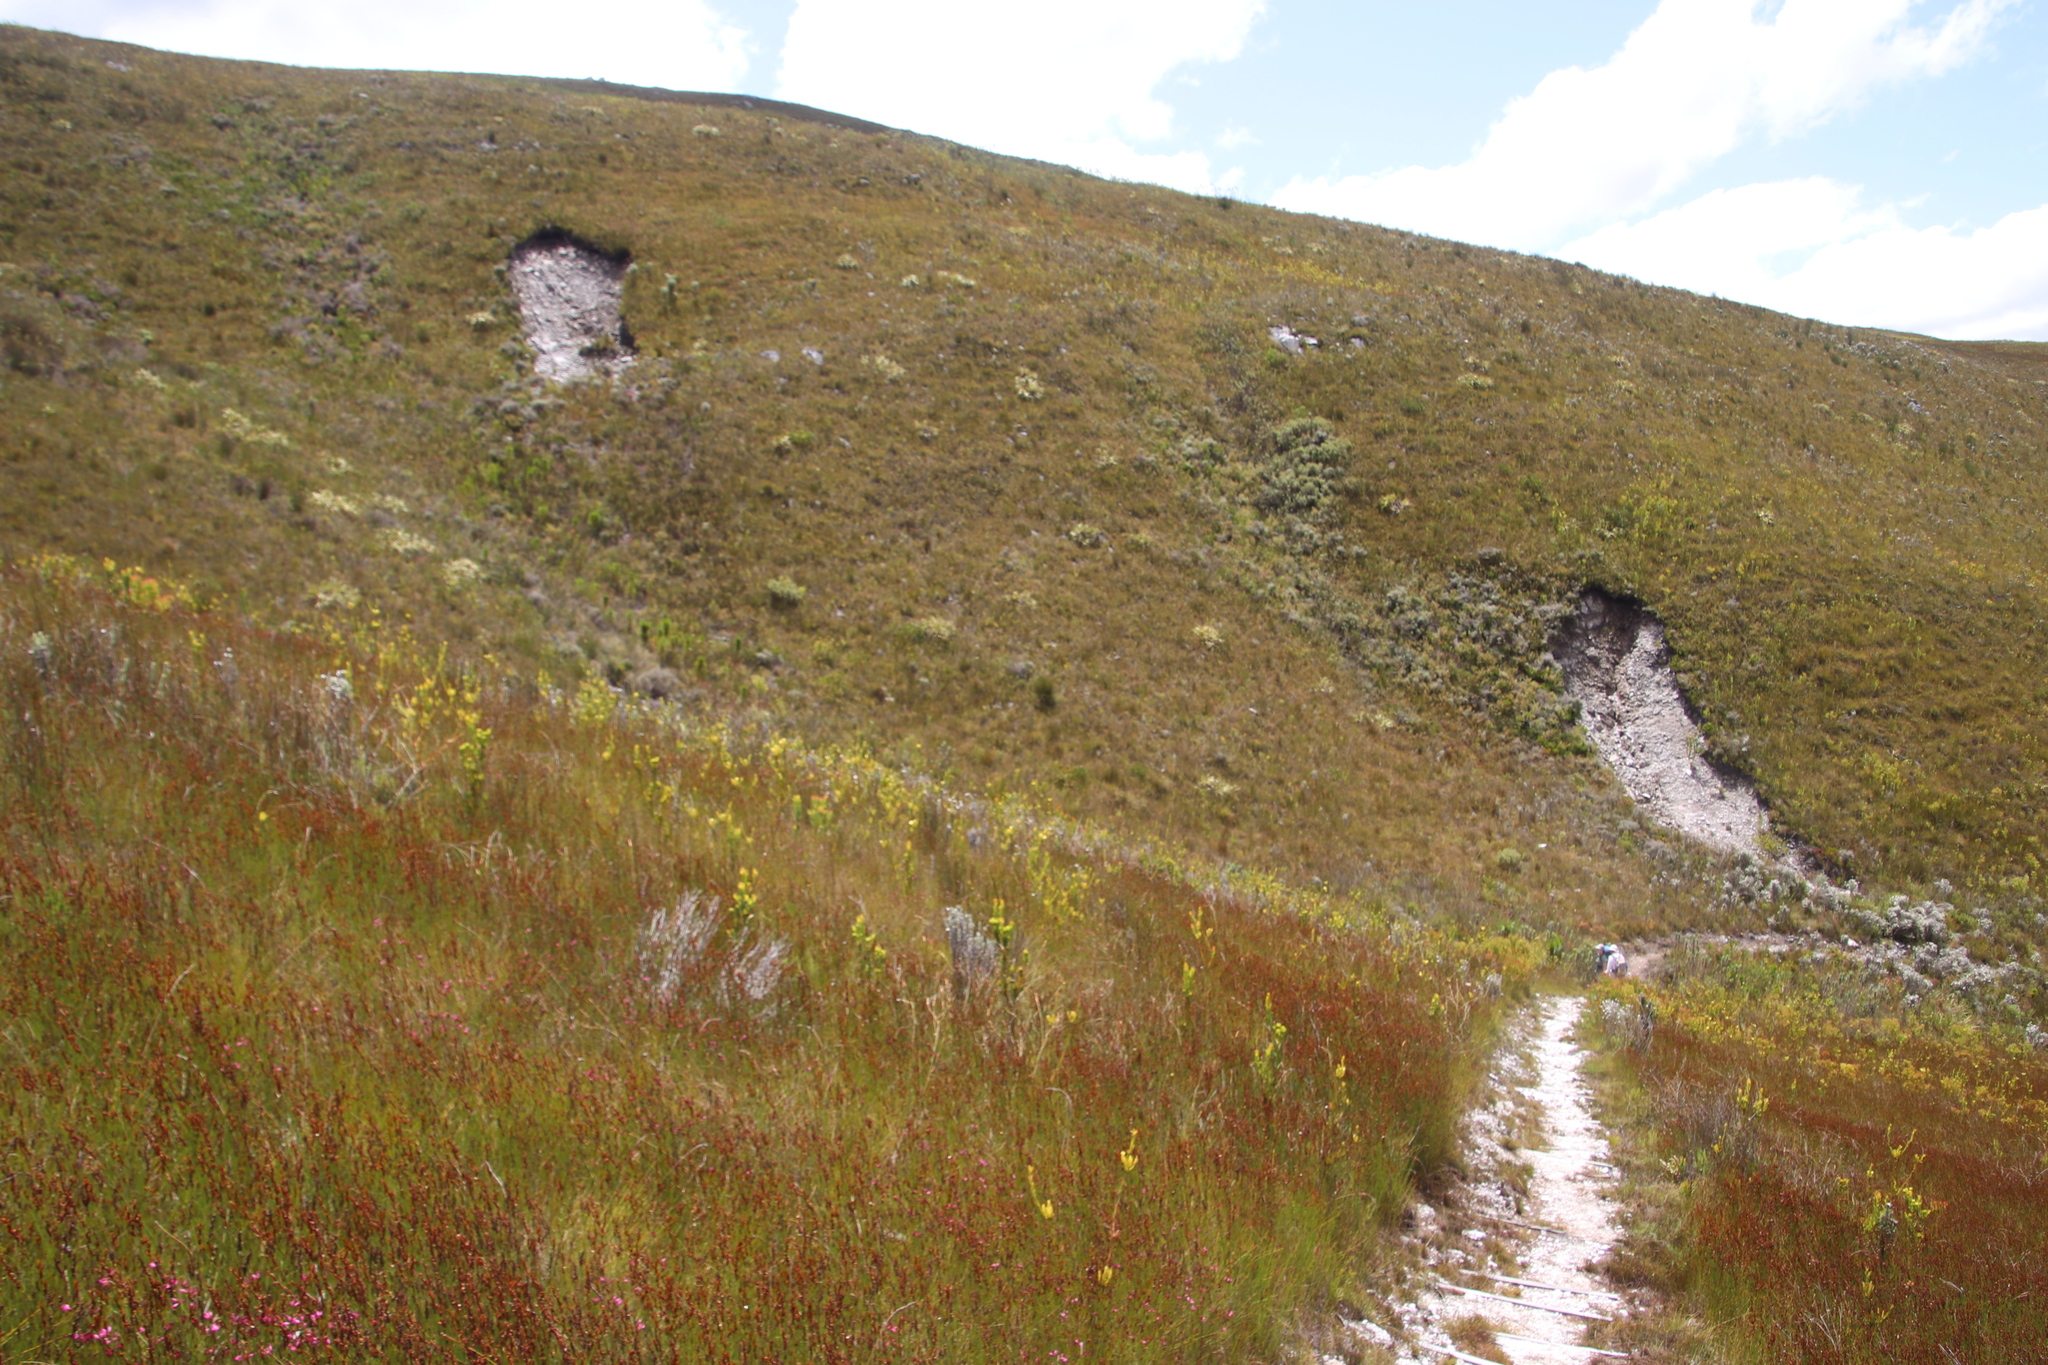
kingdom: Plantae
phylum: Tracheophyta
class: Magnoliopsida
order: Proteales
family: Proteaceae
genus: Aulax
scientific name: Aulax umbellata
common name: Broad-leaf featherbush
